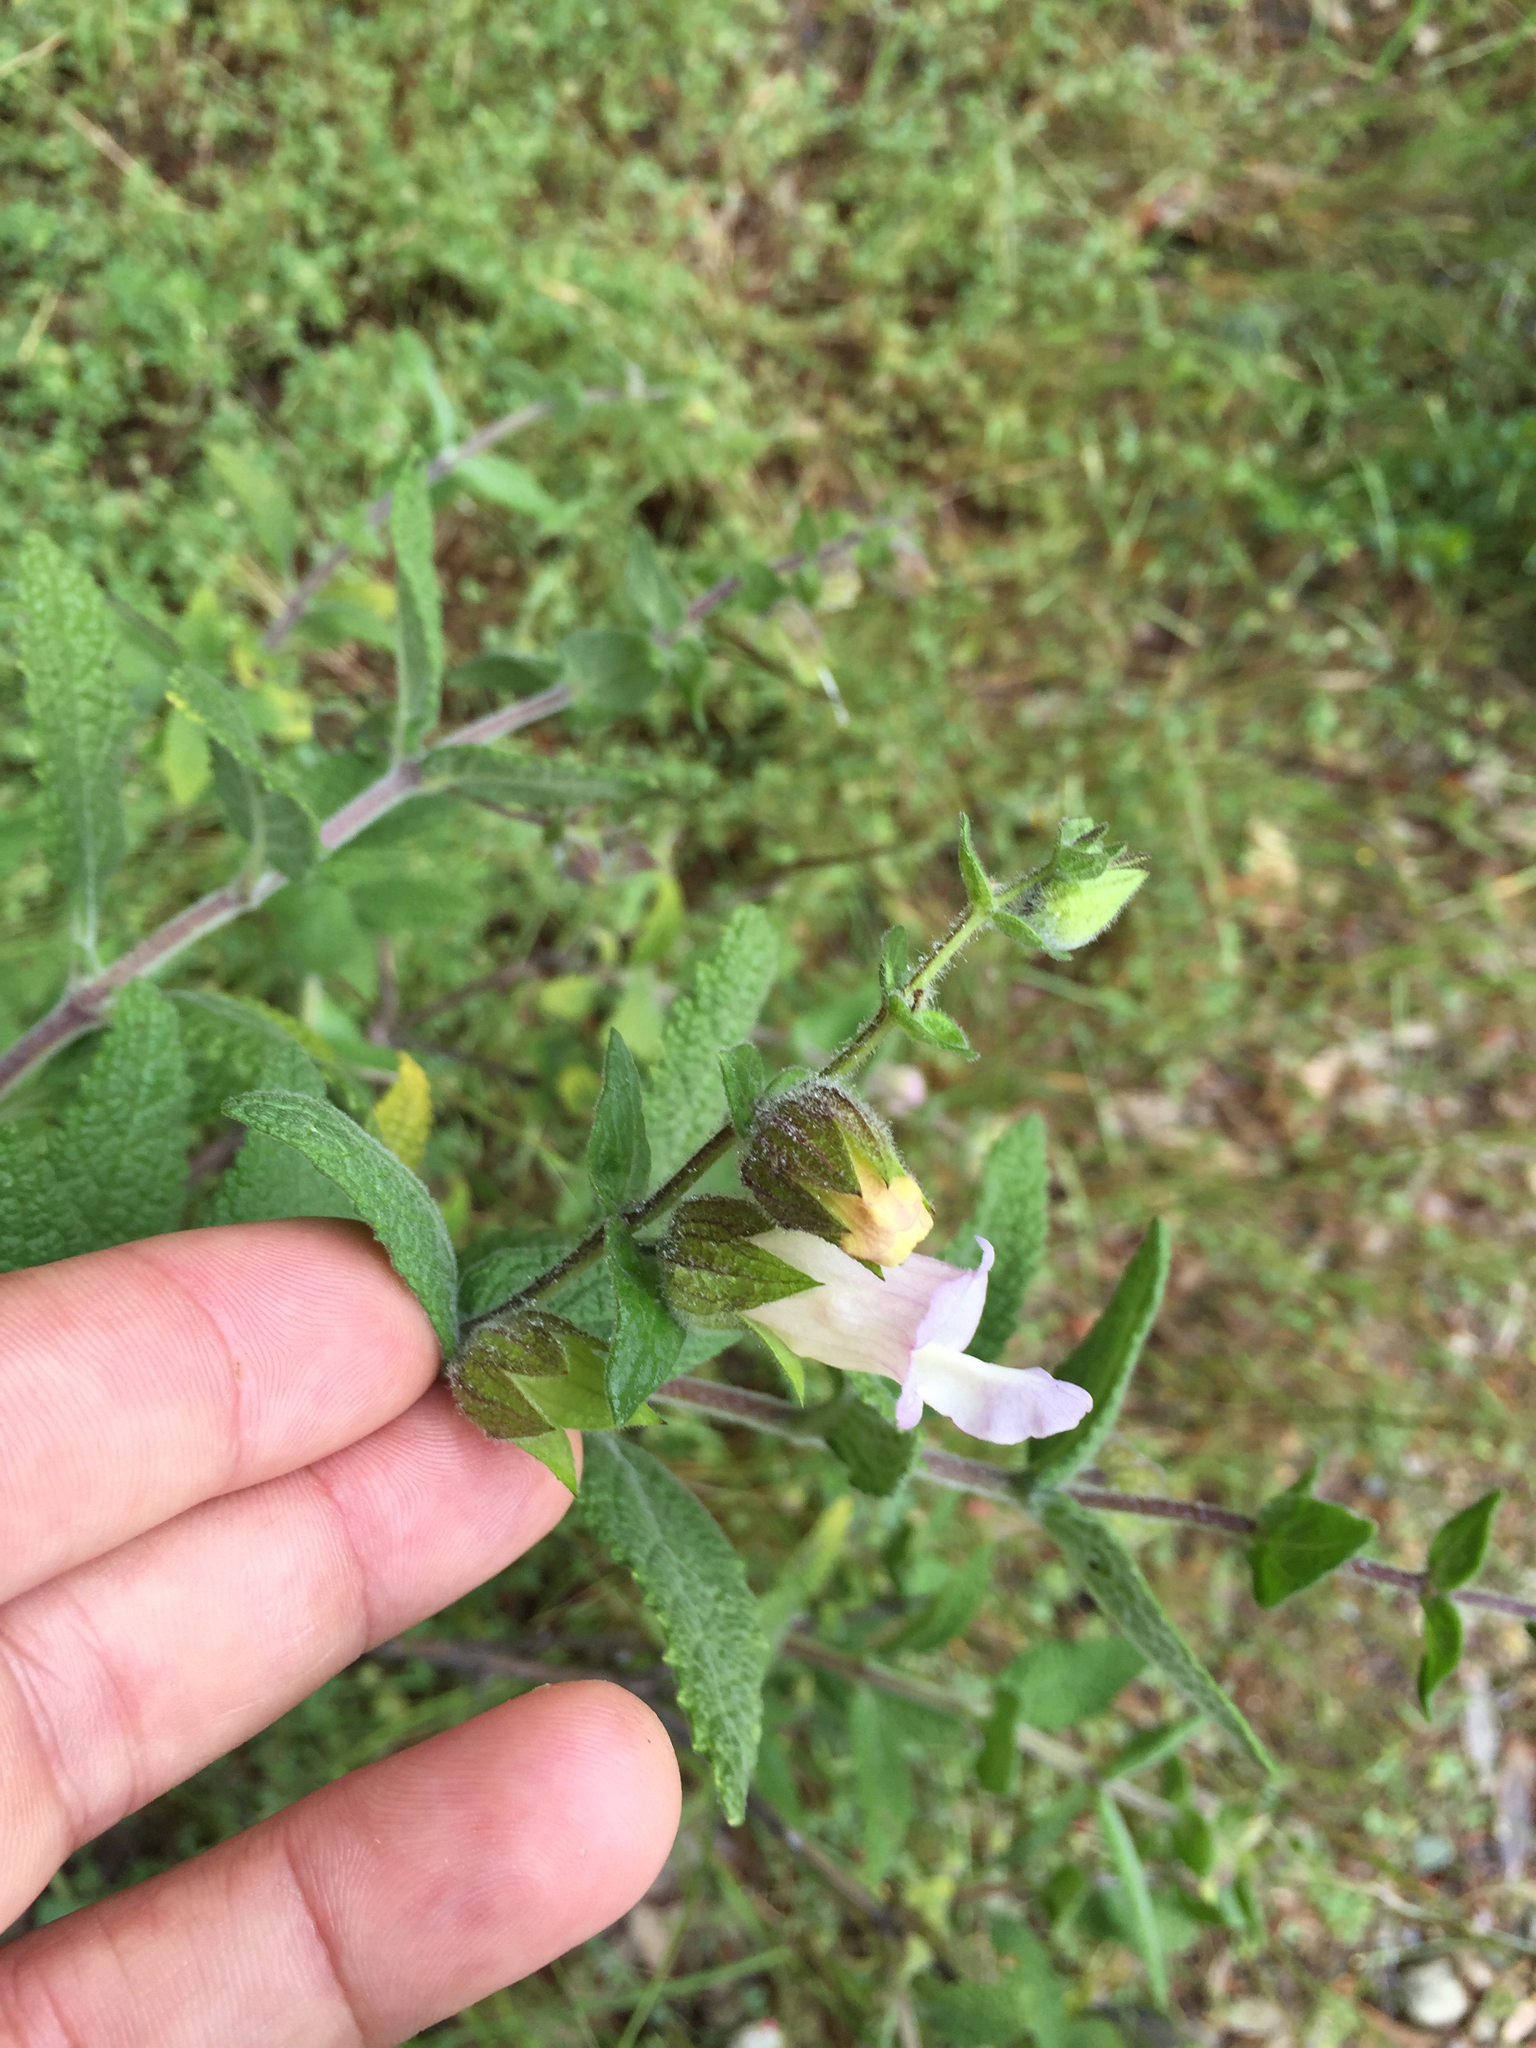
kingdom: Plantae
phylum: Tracheophyta
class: Magnoliopsida
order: Lamiales
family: Lamiaceae
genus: Lepechinia
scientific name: Lepechinia calycina
